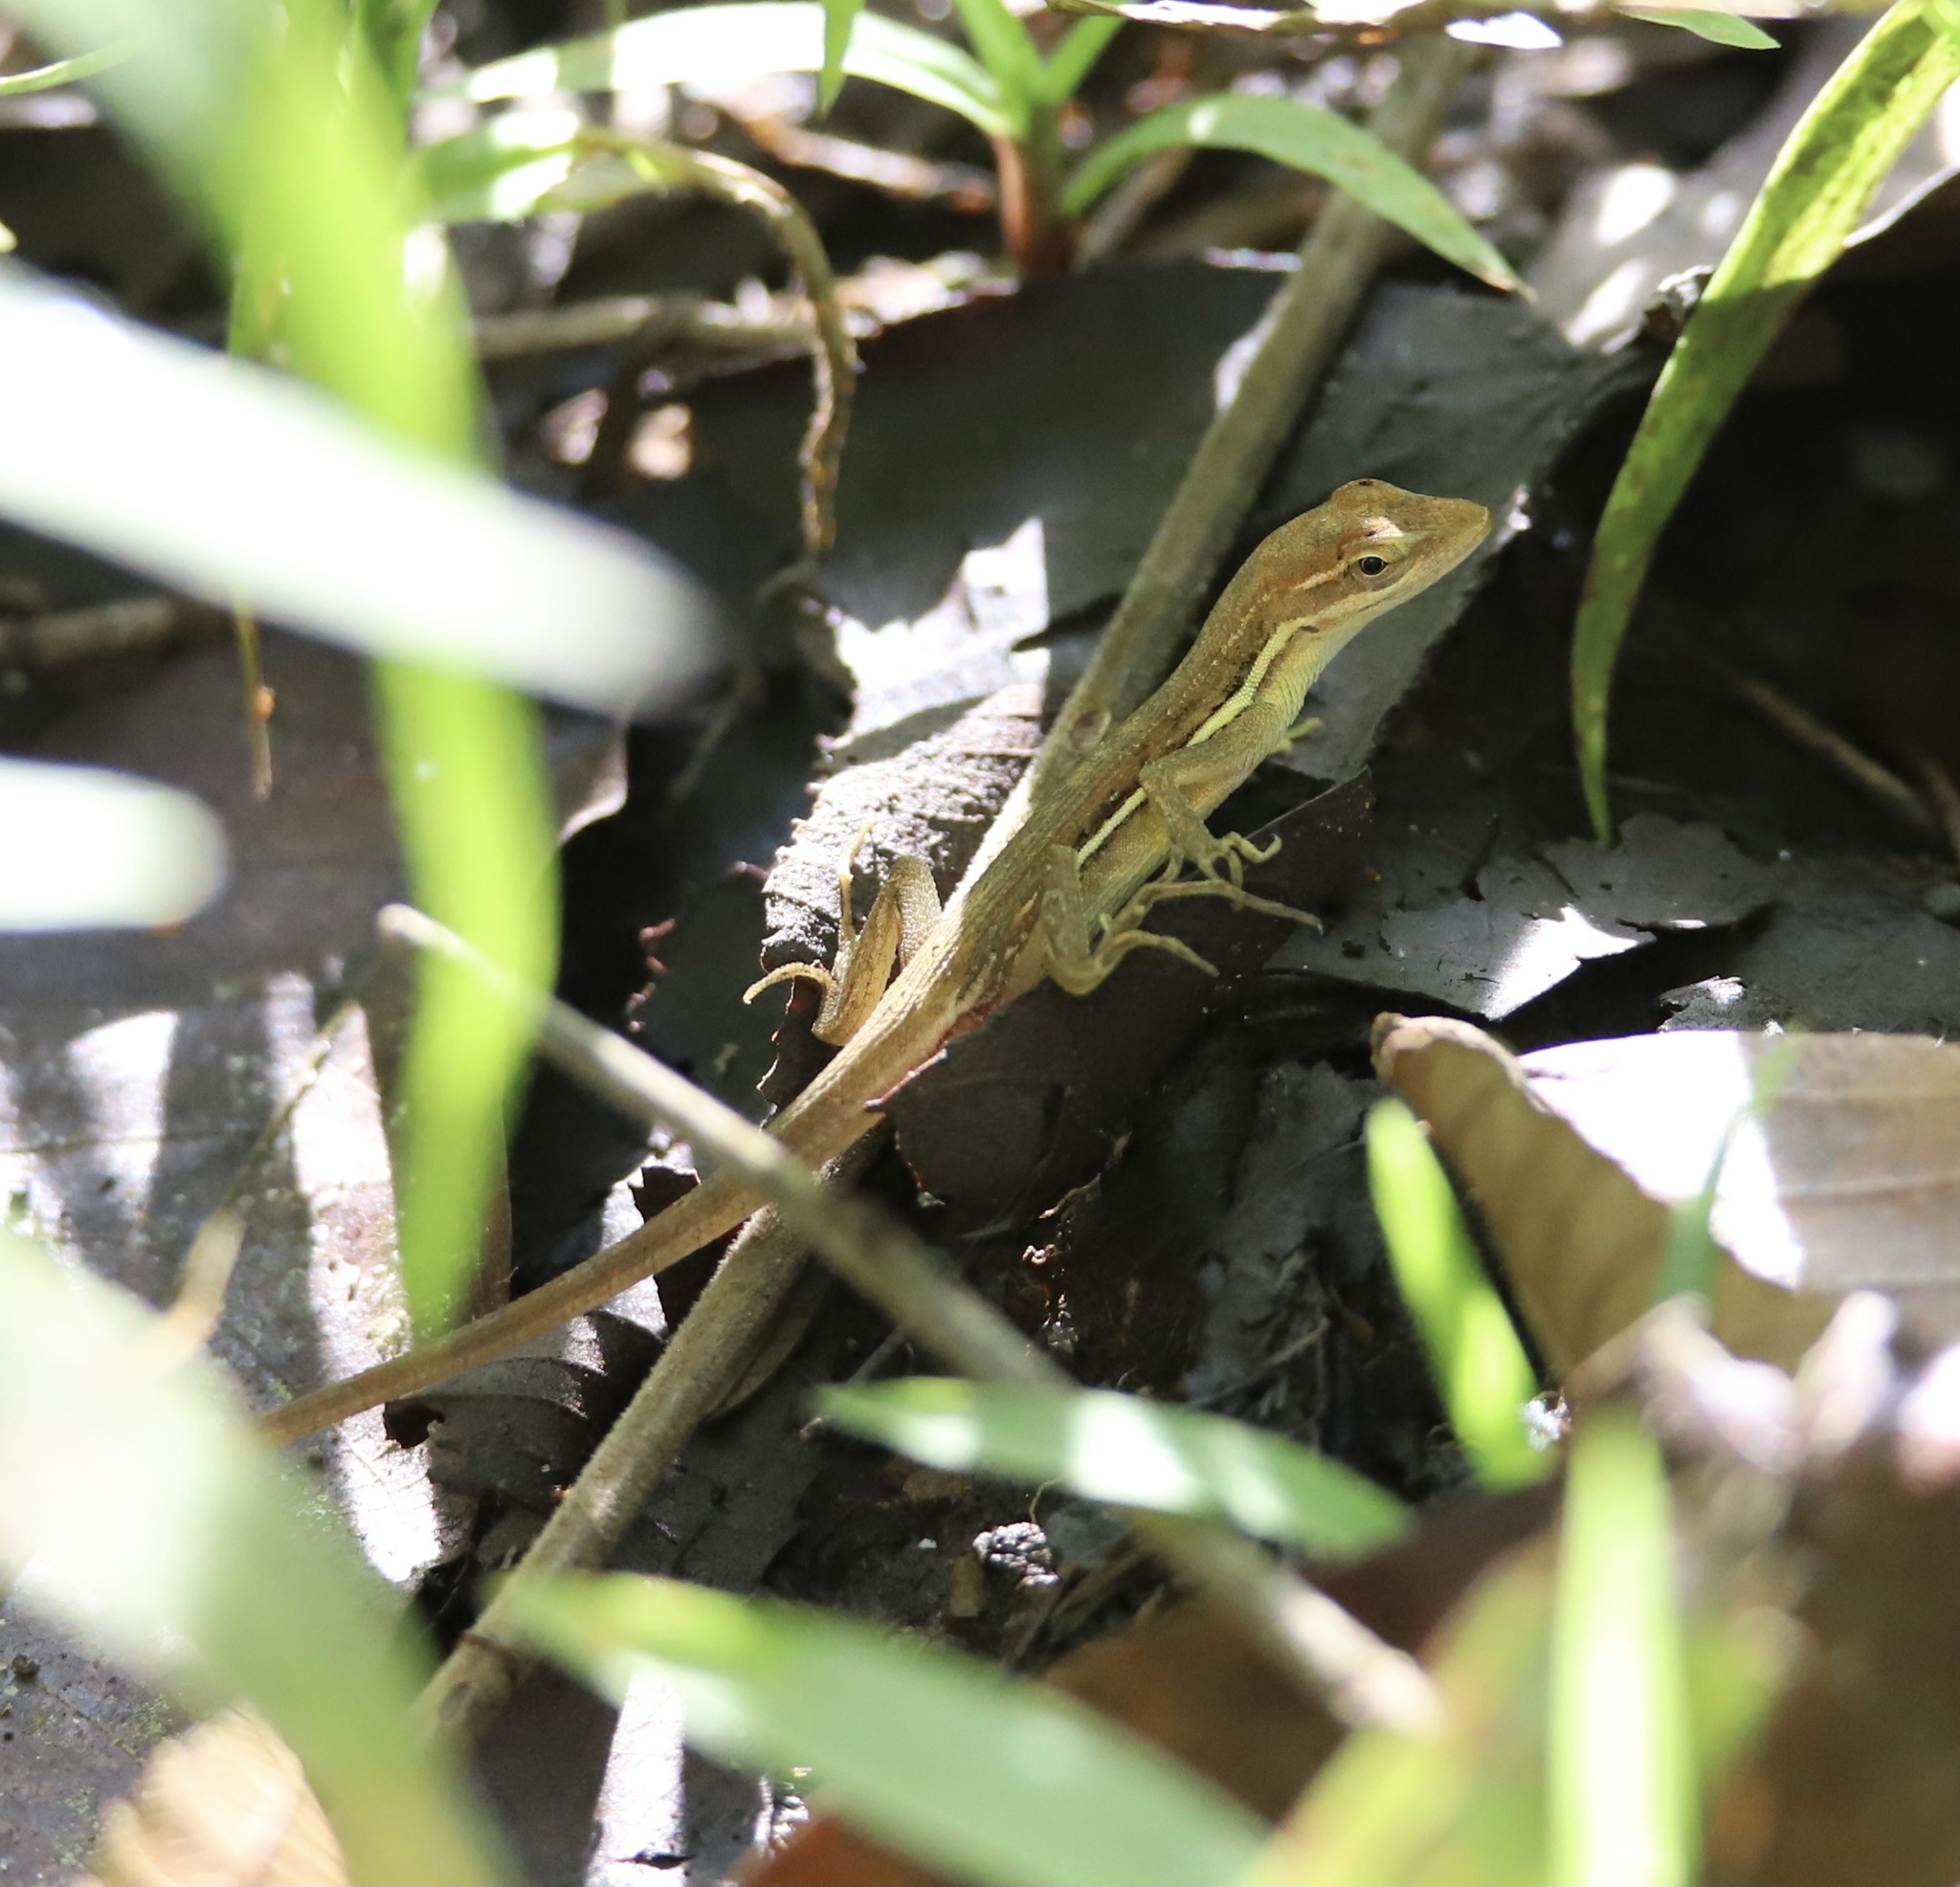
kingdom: Animalia
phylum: Chordata
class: Squamata
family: Dactyloidae
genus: Anolis
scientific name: Anolis auratus
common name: Grass anole
